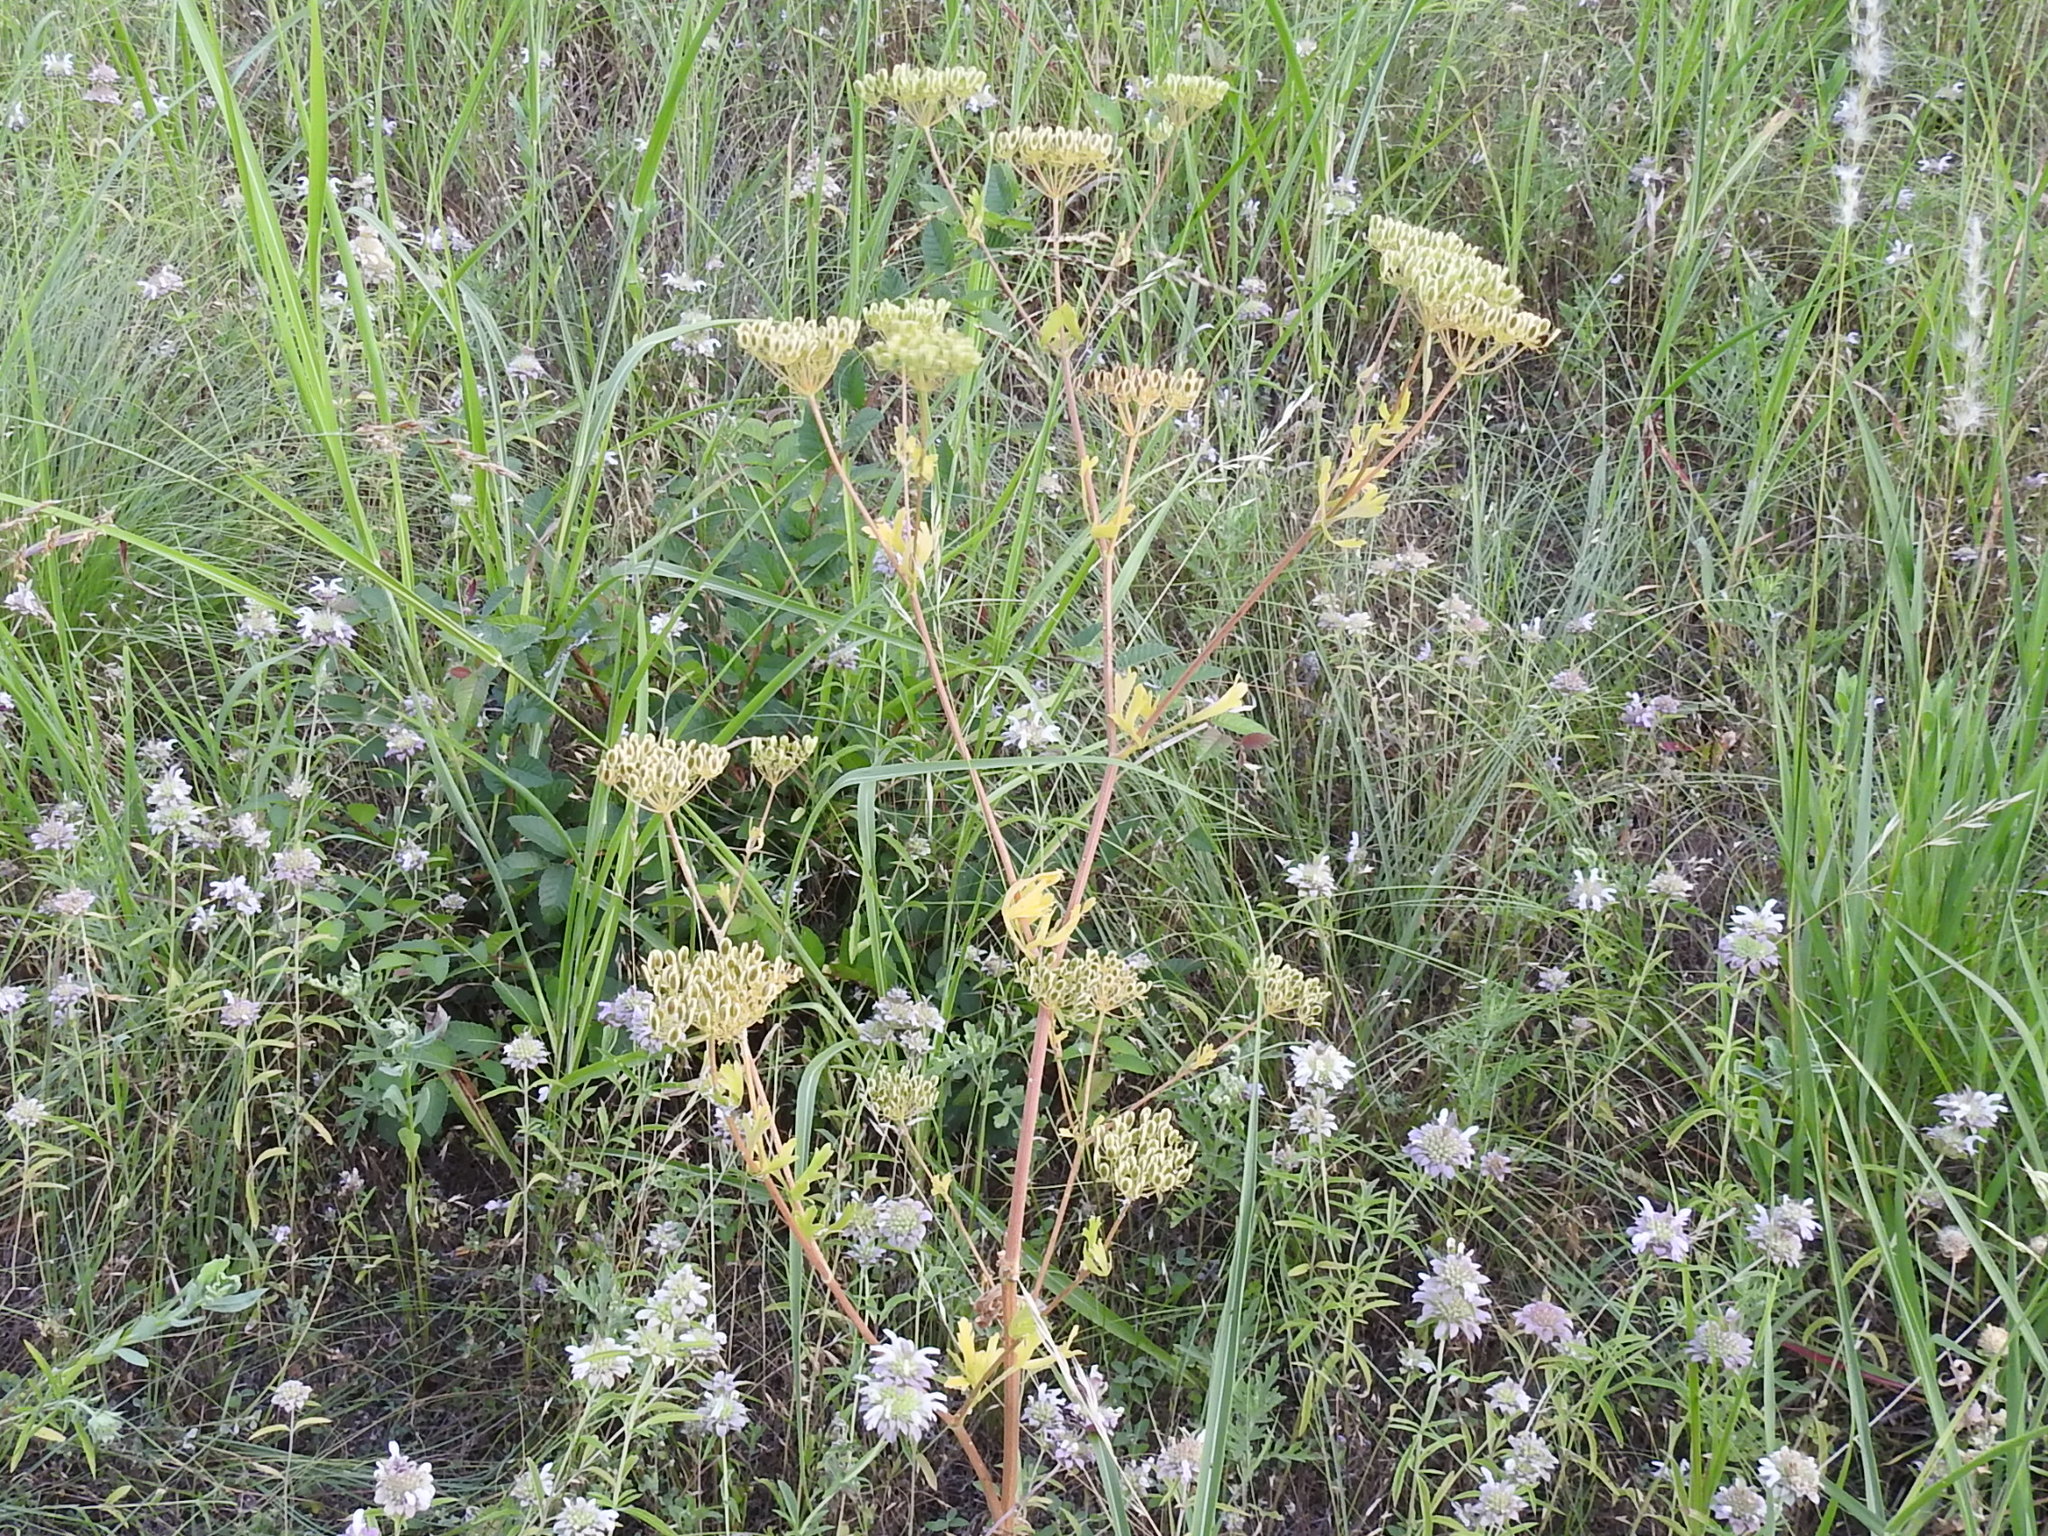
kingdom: Plantae
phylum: Tracheophyta
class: Magnoliopsida
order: Apiales
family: Apiaceae
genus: Polytaenia
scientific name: Polytaenia texana
